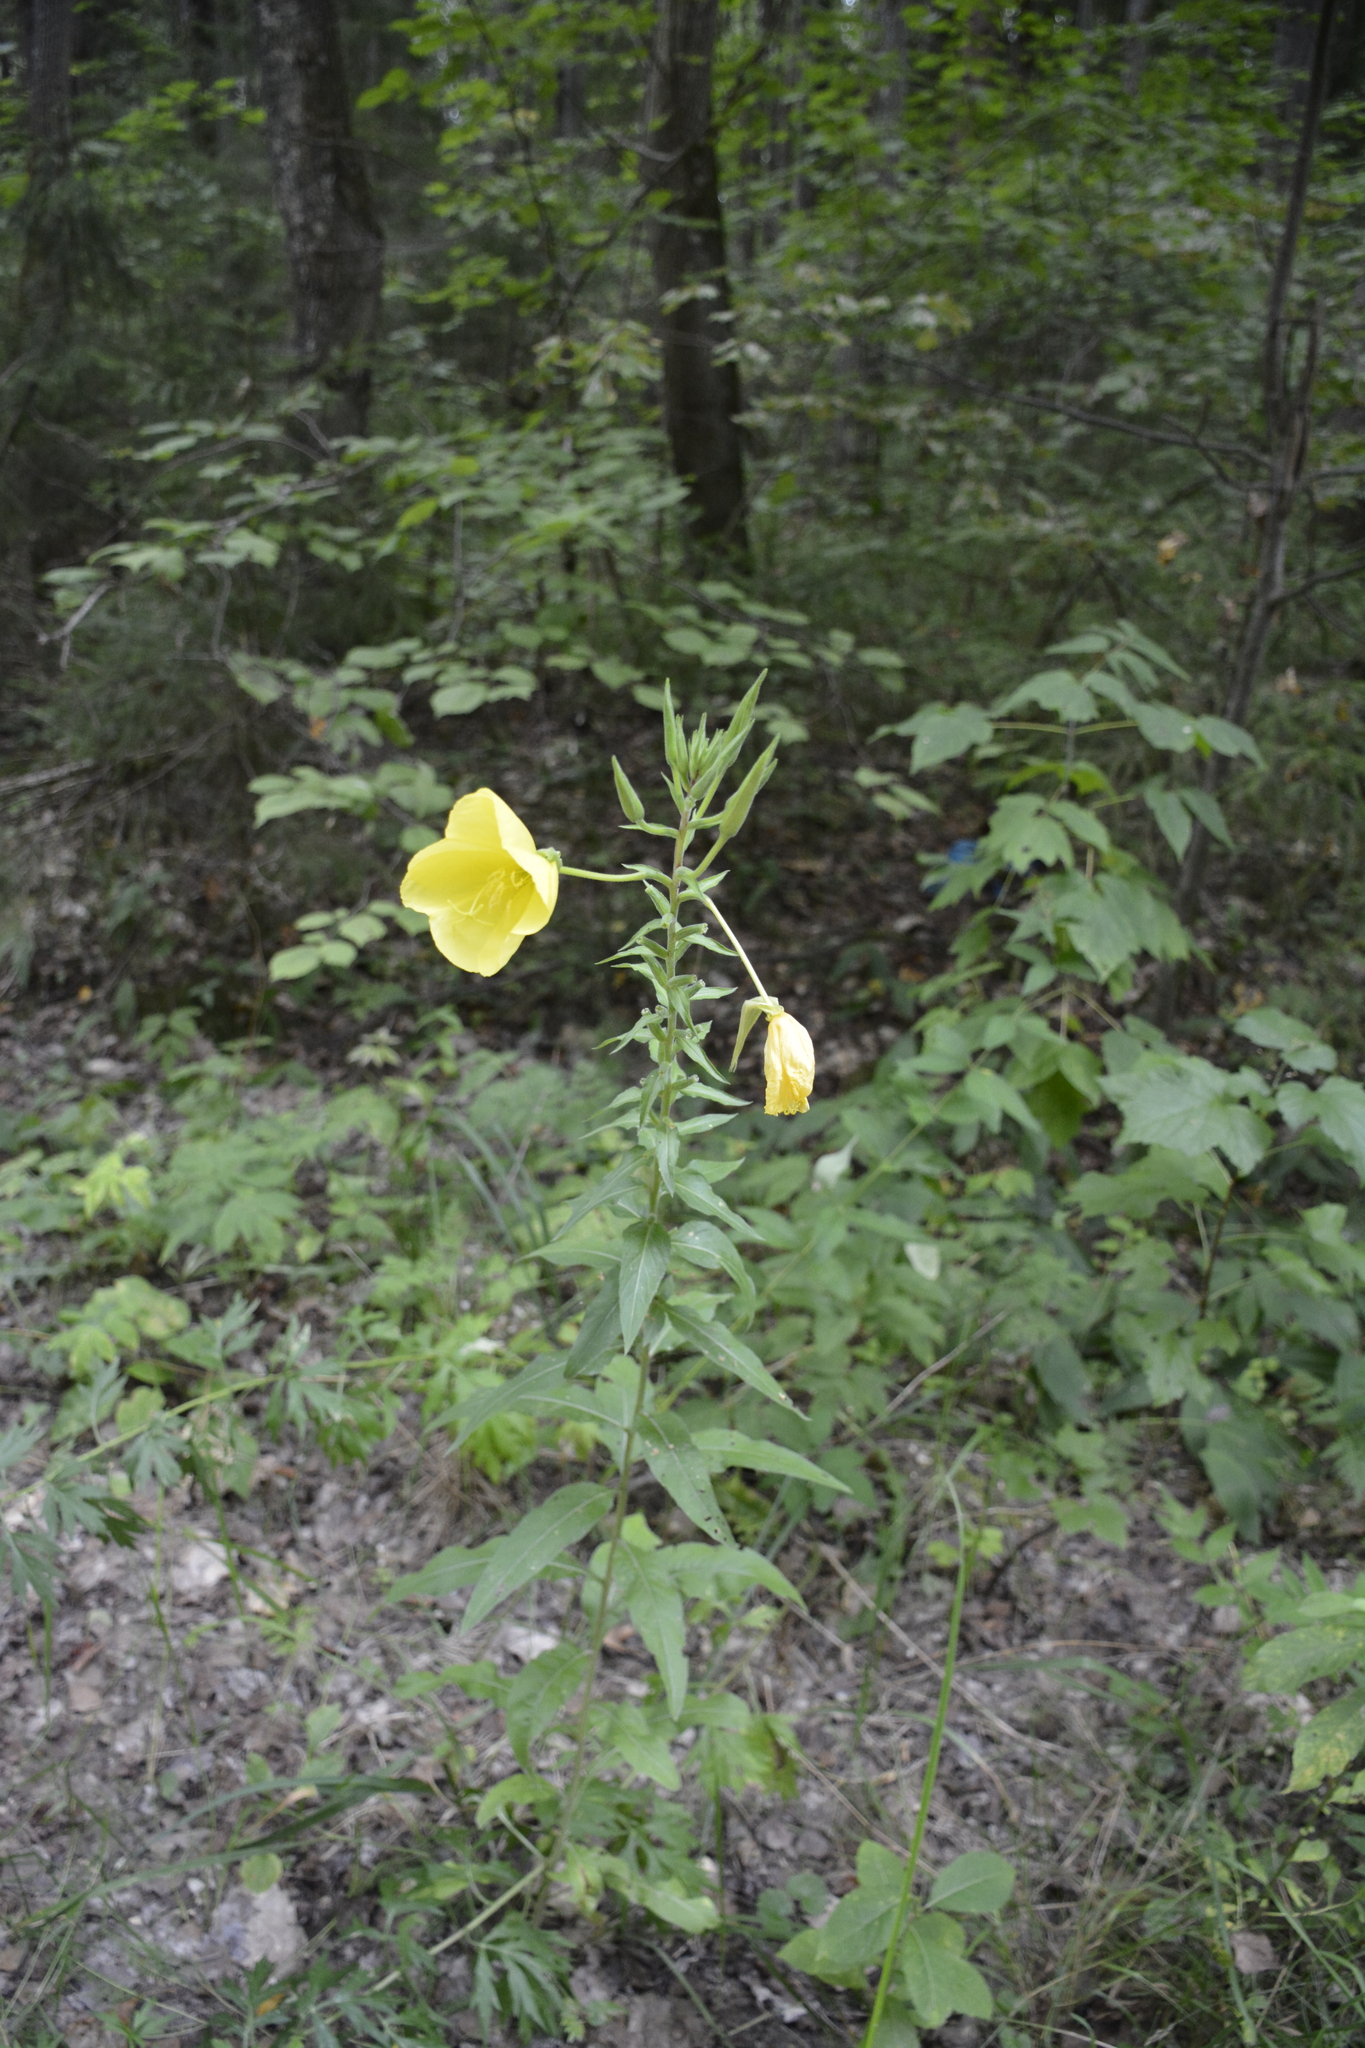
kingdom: Plantae
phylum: Tracheophyta
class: Magnoliopsida
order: Myrtales
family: Onagraceae
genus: Oenothera
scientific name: Oenothera glazioviana
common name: Large-flowered evening-primrose
